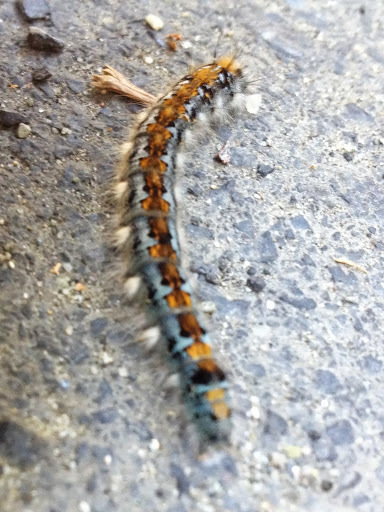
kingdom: Animalia
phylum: Arthropoda
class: Insecta
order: Lepidoptera
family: Lasiocampidae
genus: Malacosoma
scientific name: Malacosoma constricta
